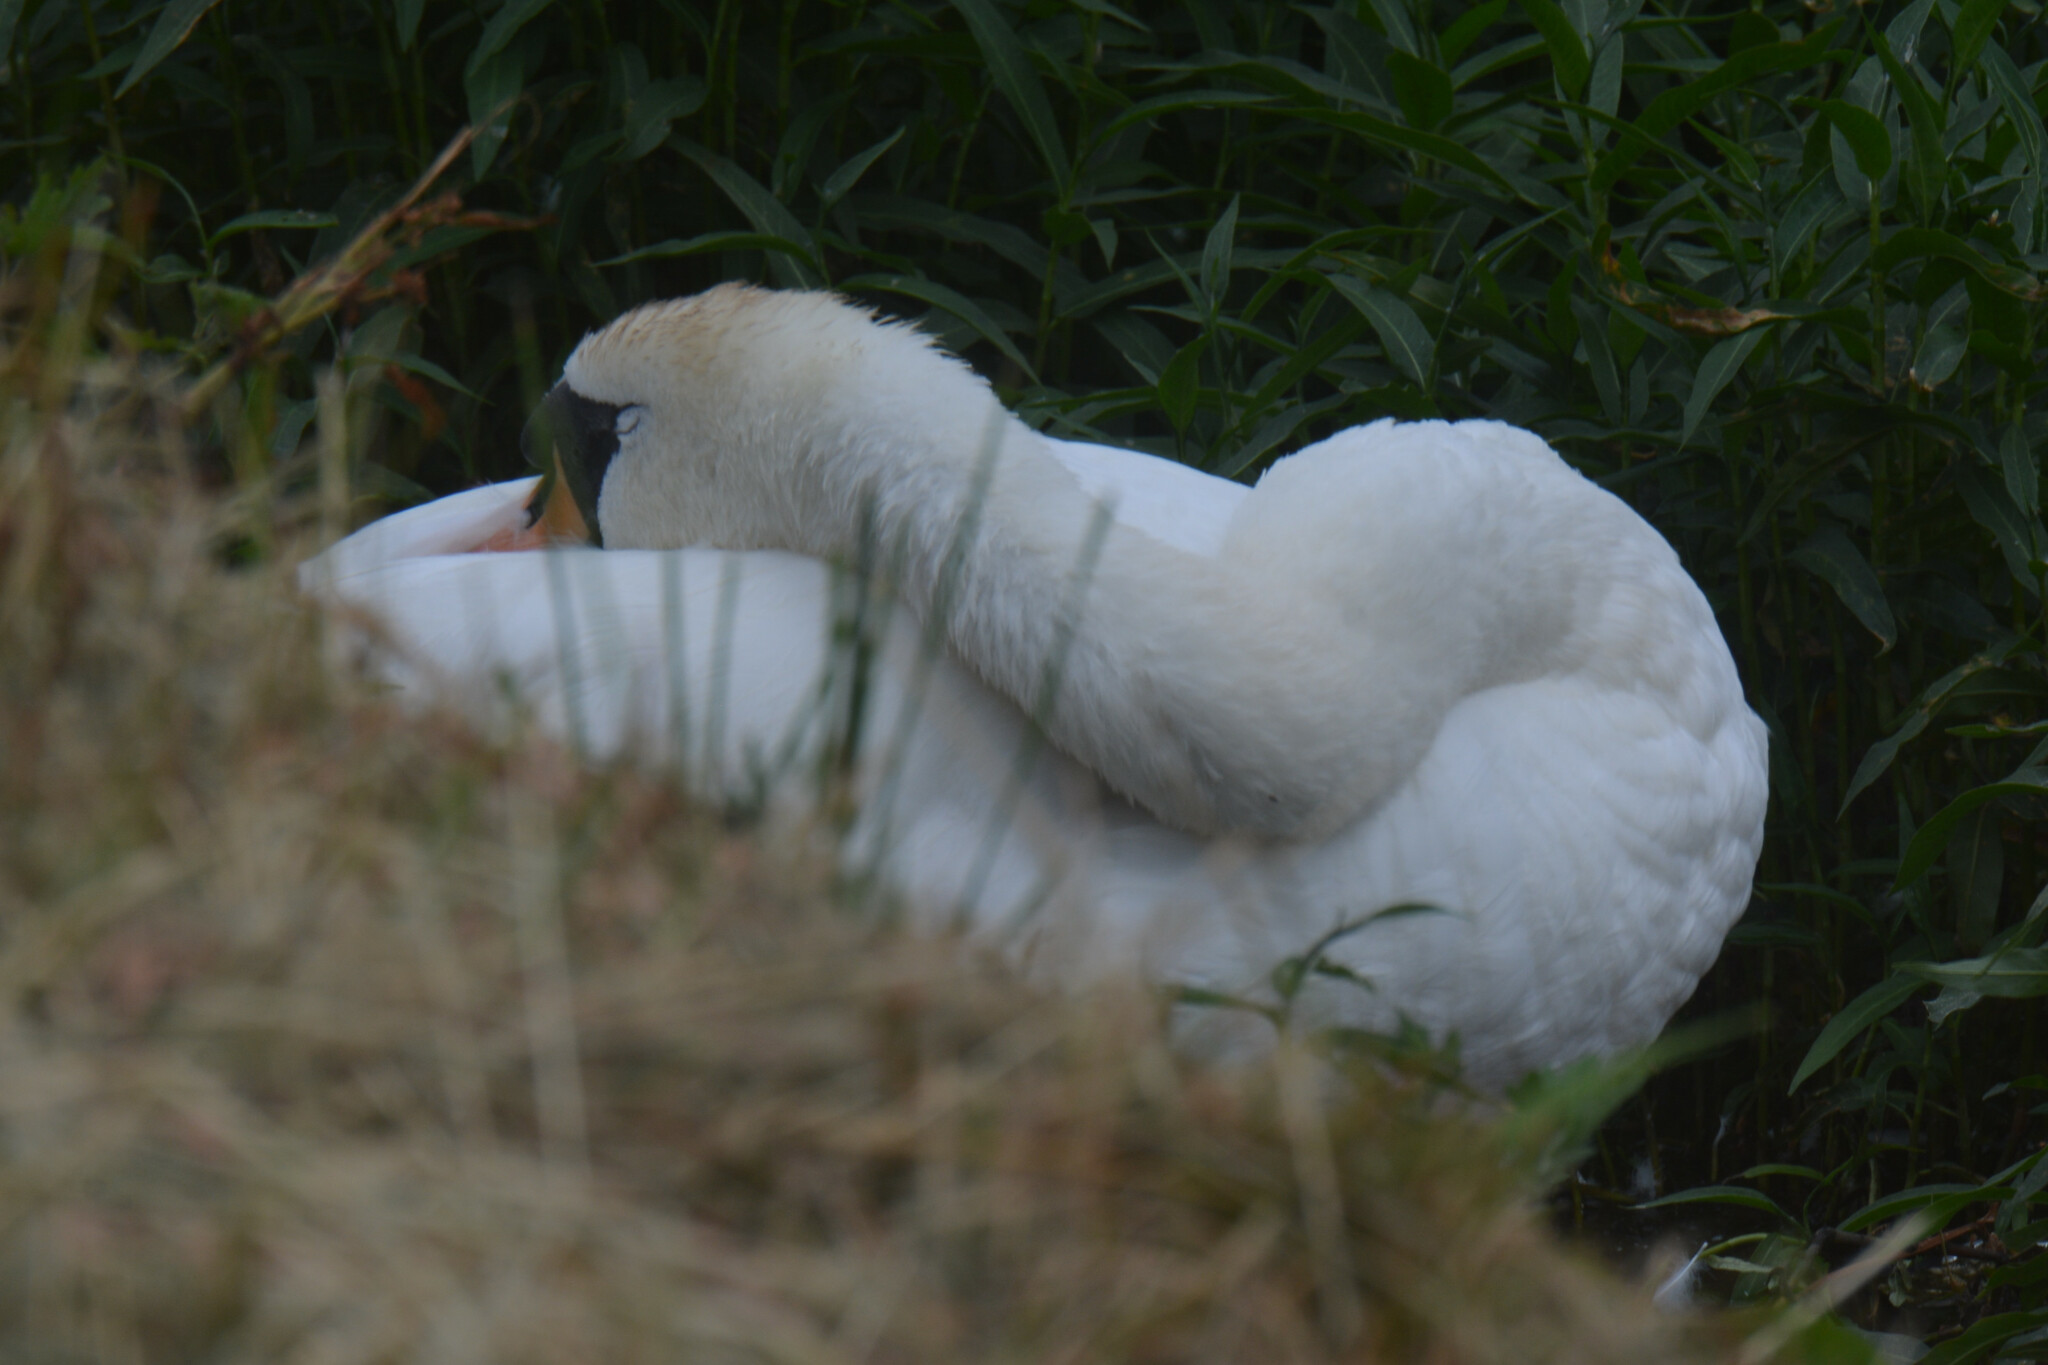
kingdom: Animalia
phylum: Chordata
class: Aves
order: Anseriformes
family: Anatidae
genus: Cygnus
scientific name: Cygnus olor
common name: Mute swan
